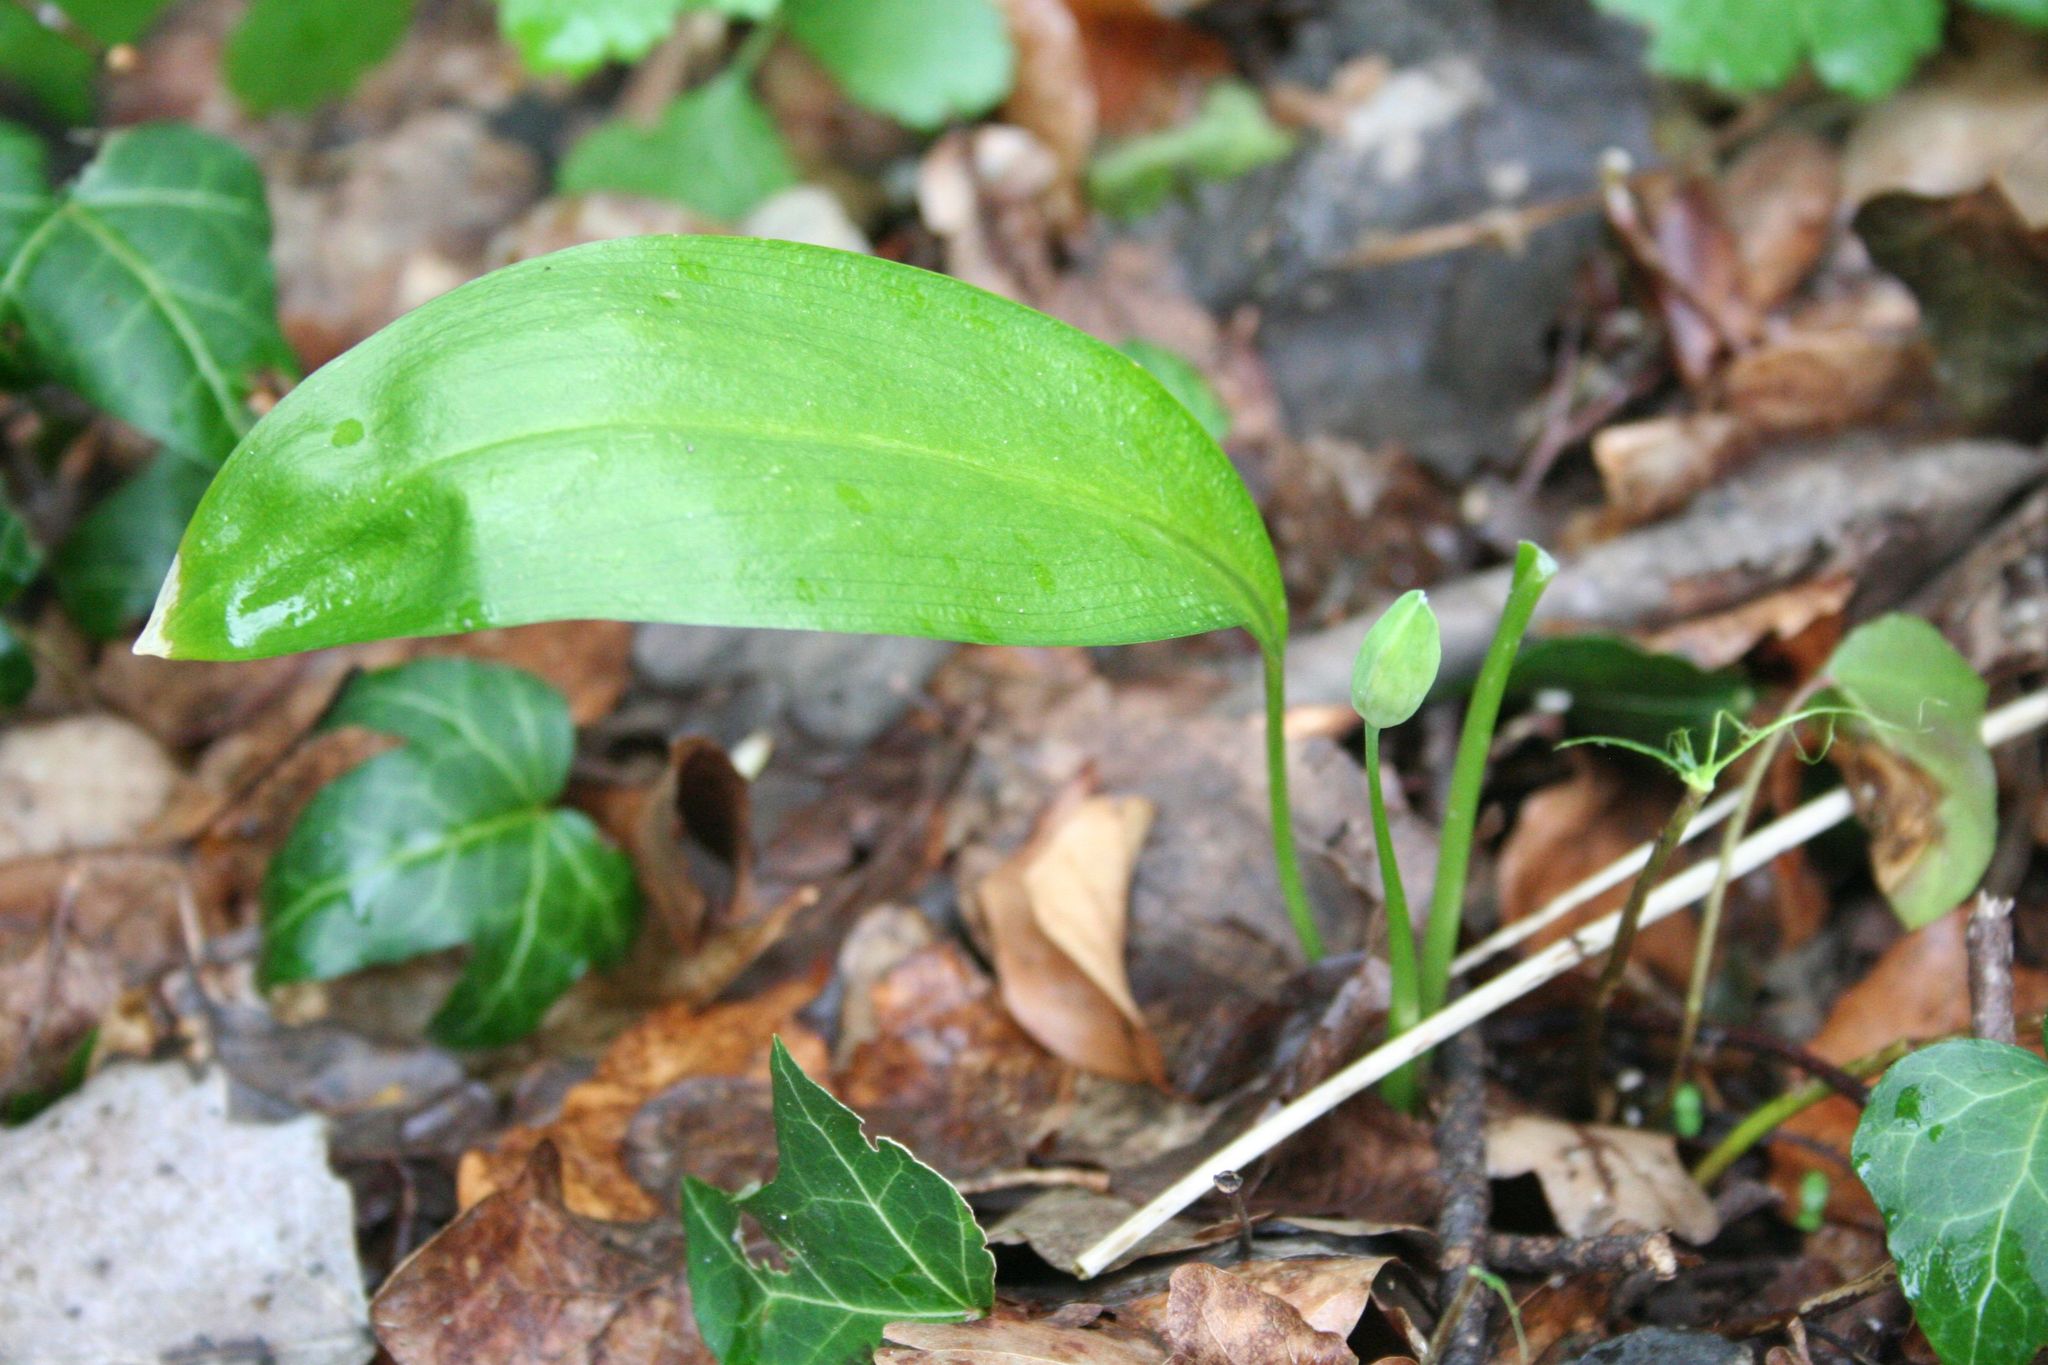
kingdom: Plantae
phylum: Tracheophyta
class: Liliopsida
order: Asparagales
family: Amaryllidaceae
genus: Allium
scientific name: Allium ursinum
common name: Ramsons
